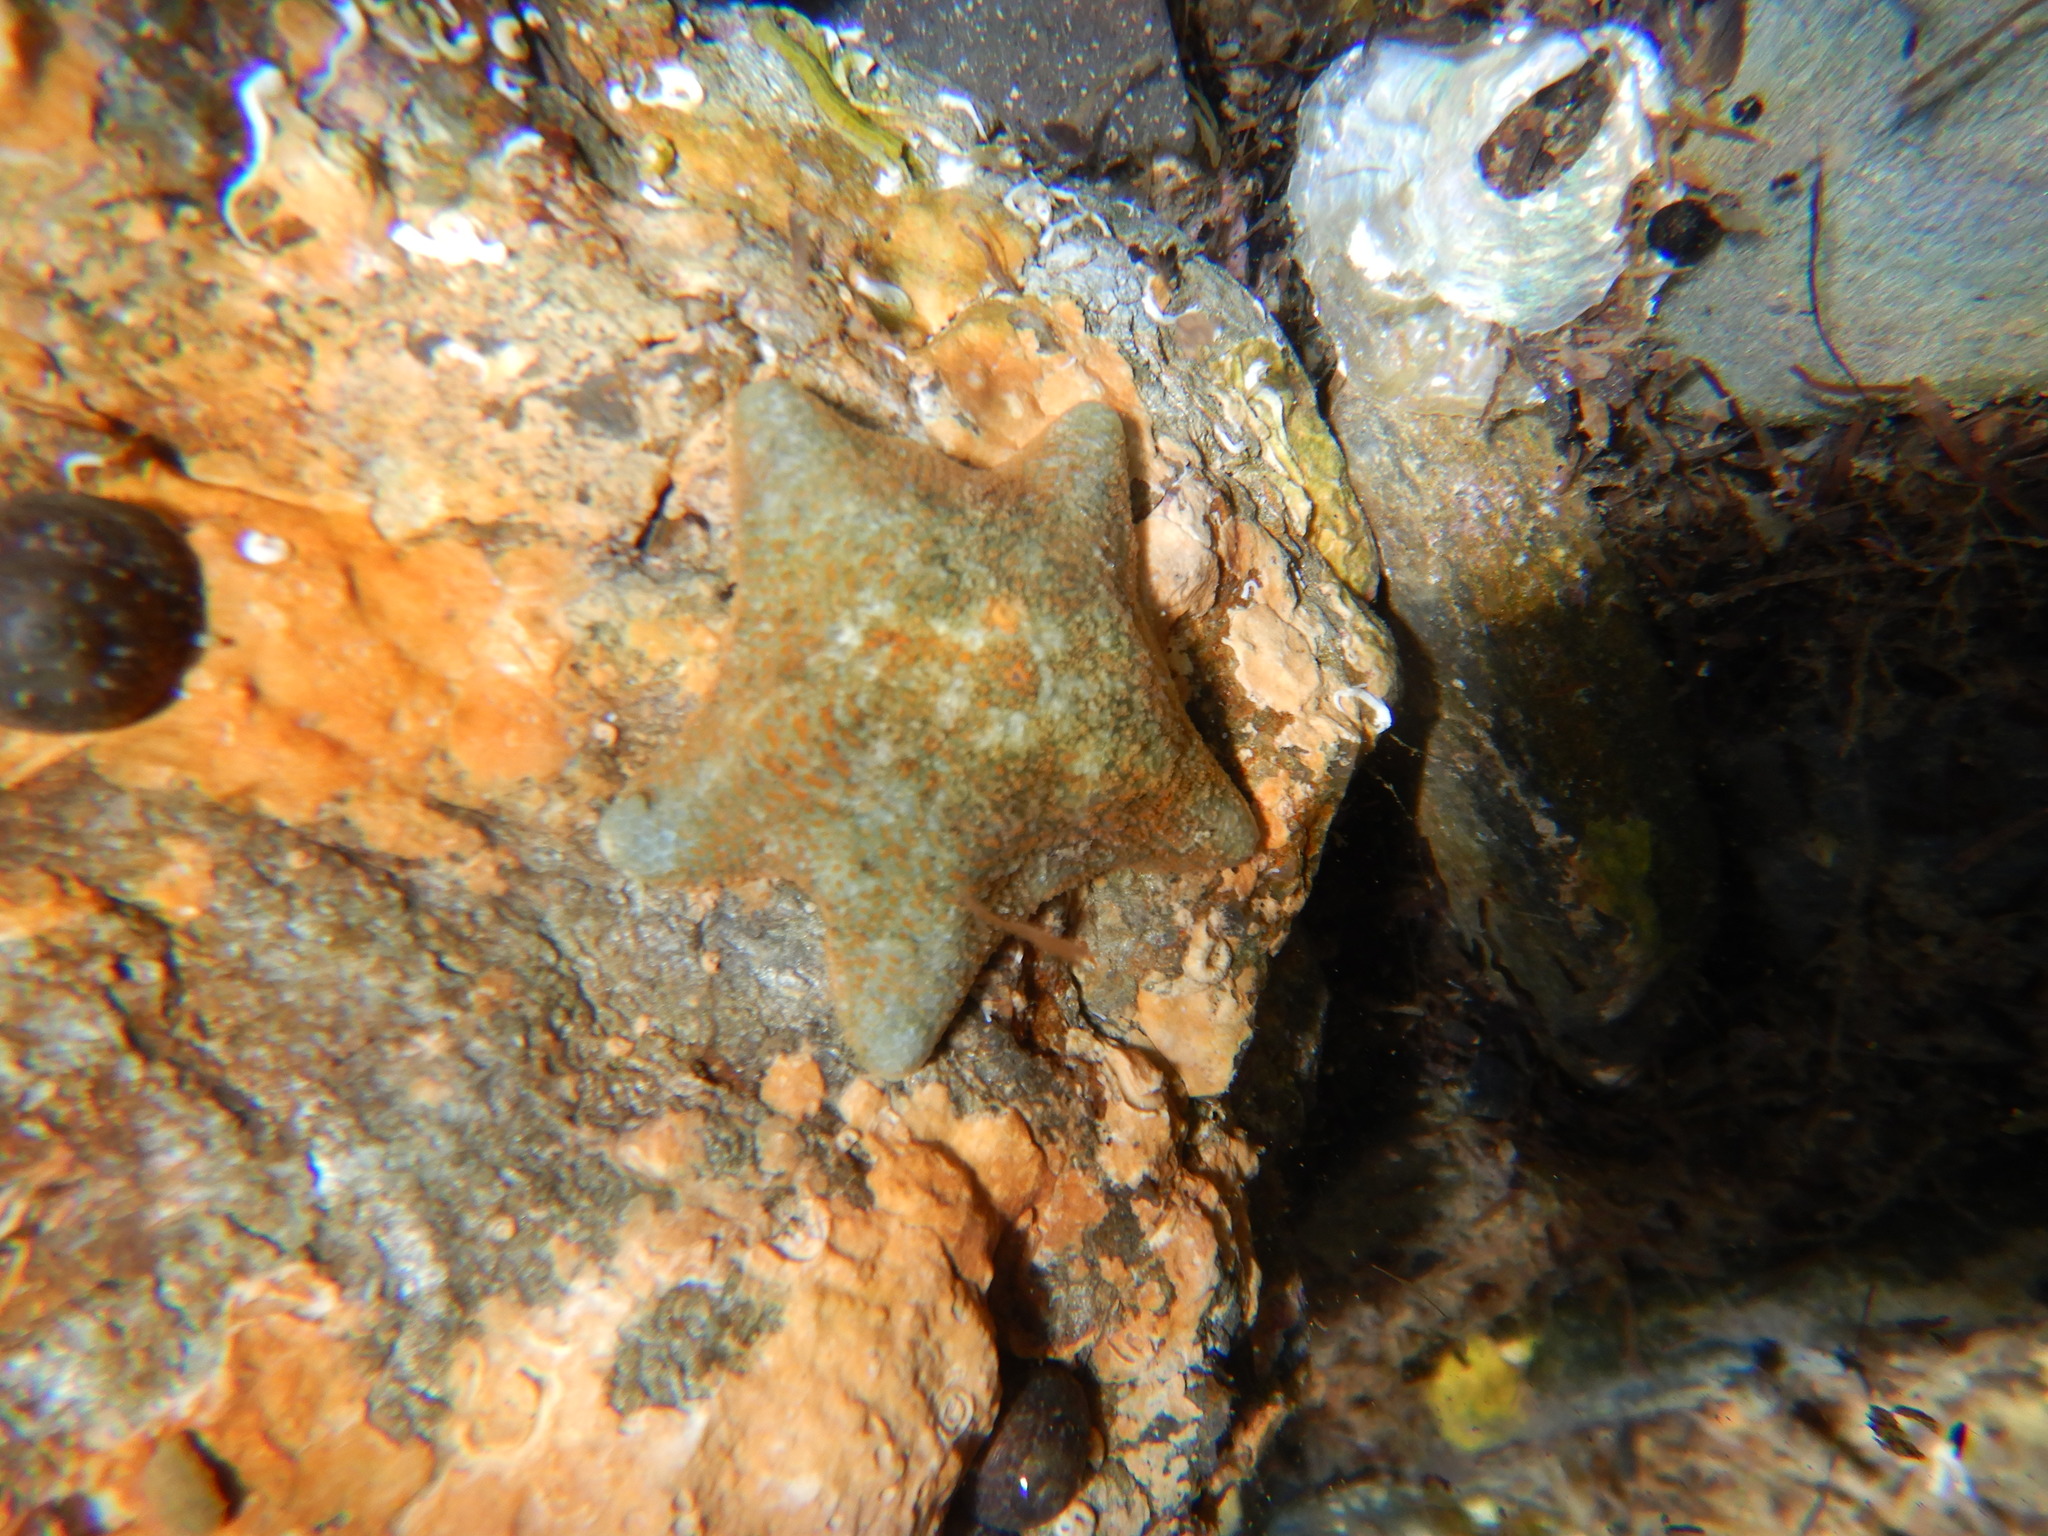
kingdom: Animalia
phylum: Echinodermata
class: Asteroidea
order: Valvatida
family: Asterinidae
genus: Asterina
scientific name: Asterina gibbosa
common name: Cushion star
